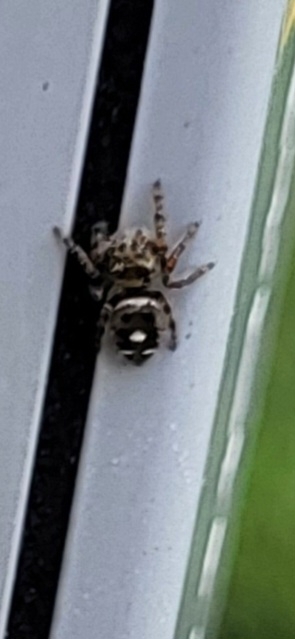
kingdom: Animalia
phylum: Arthropoda
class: Arachnida
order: Araneae
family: Salticidae
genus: Phidippus
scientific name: Phidippus audax
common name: Bold jumper
